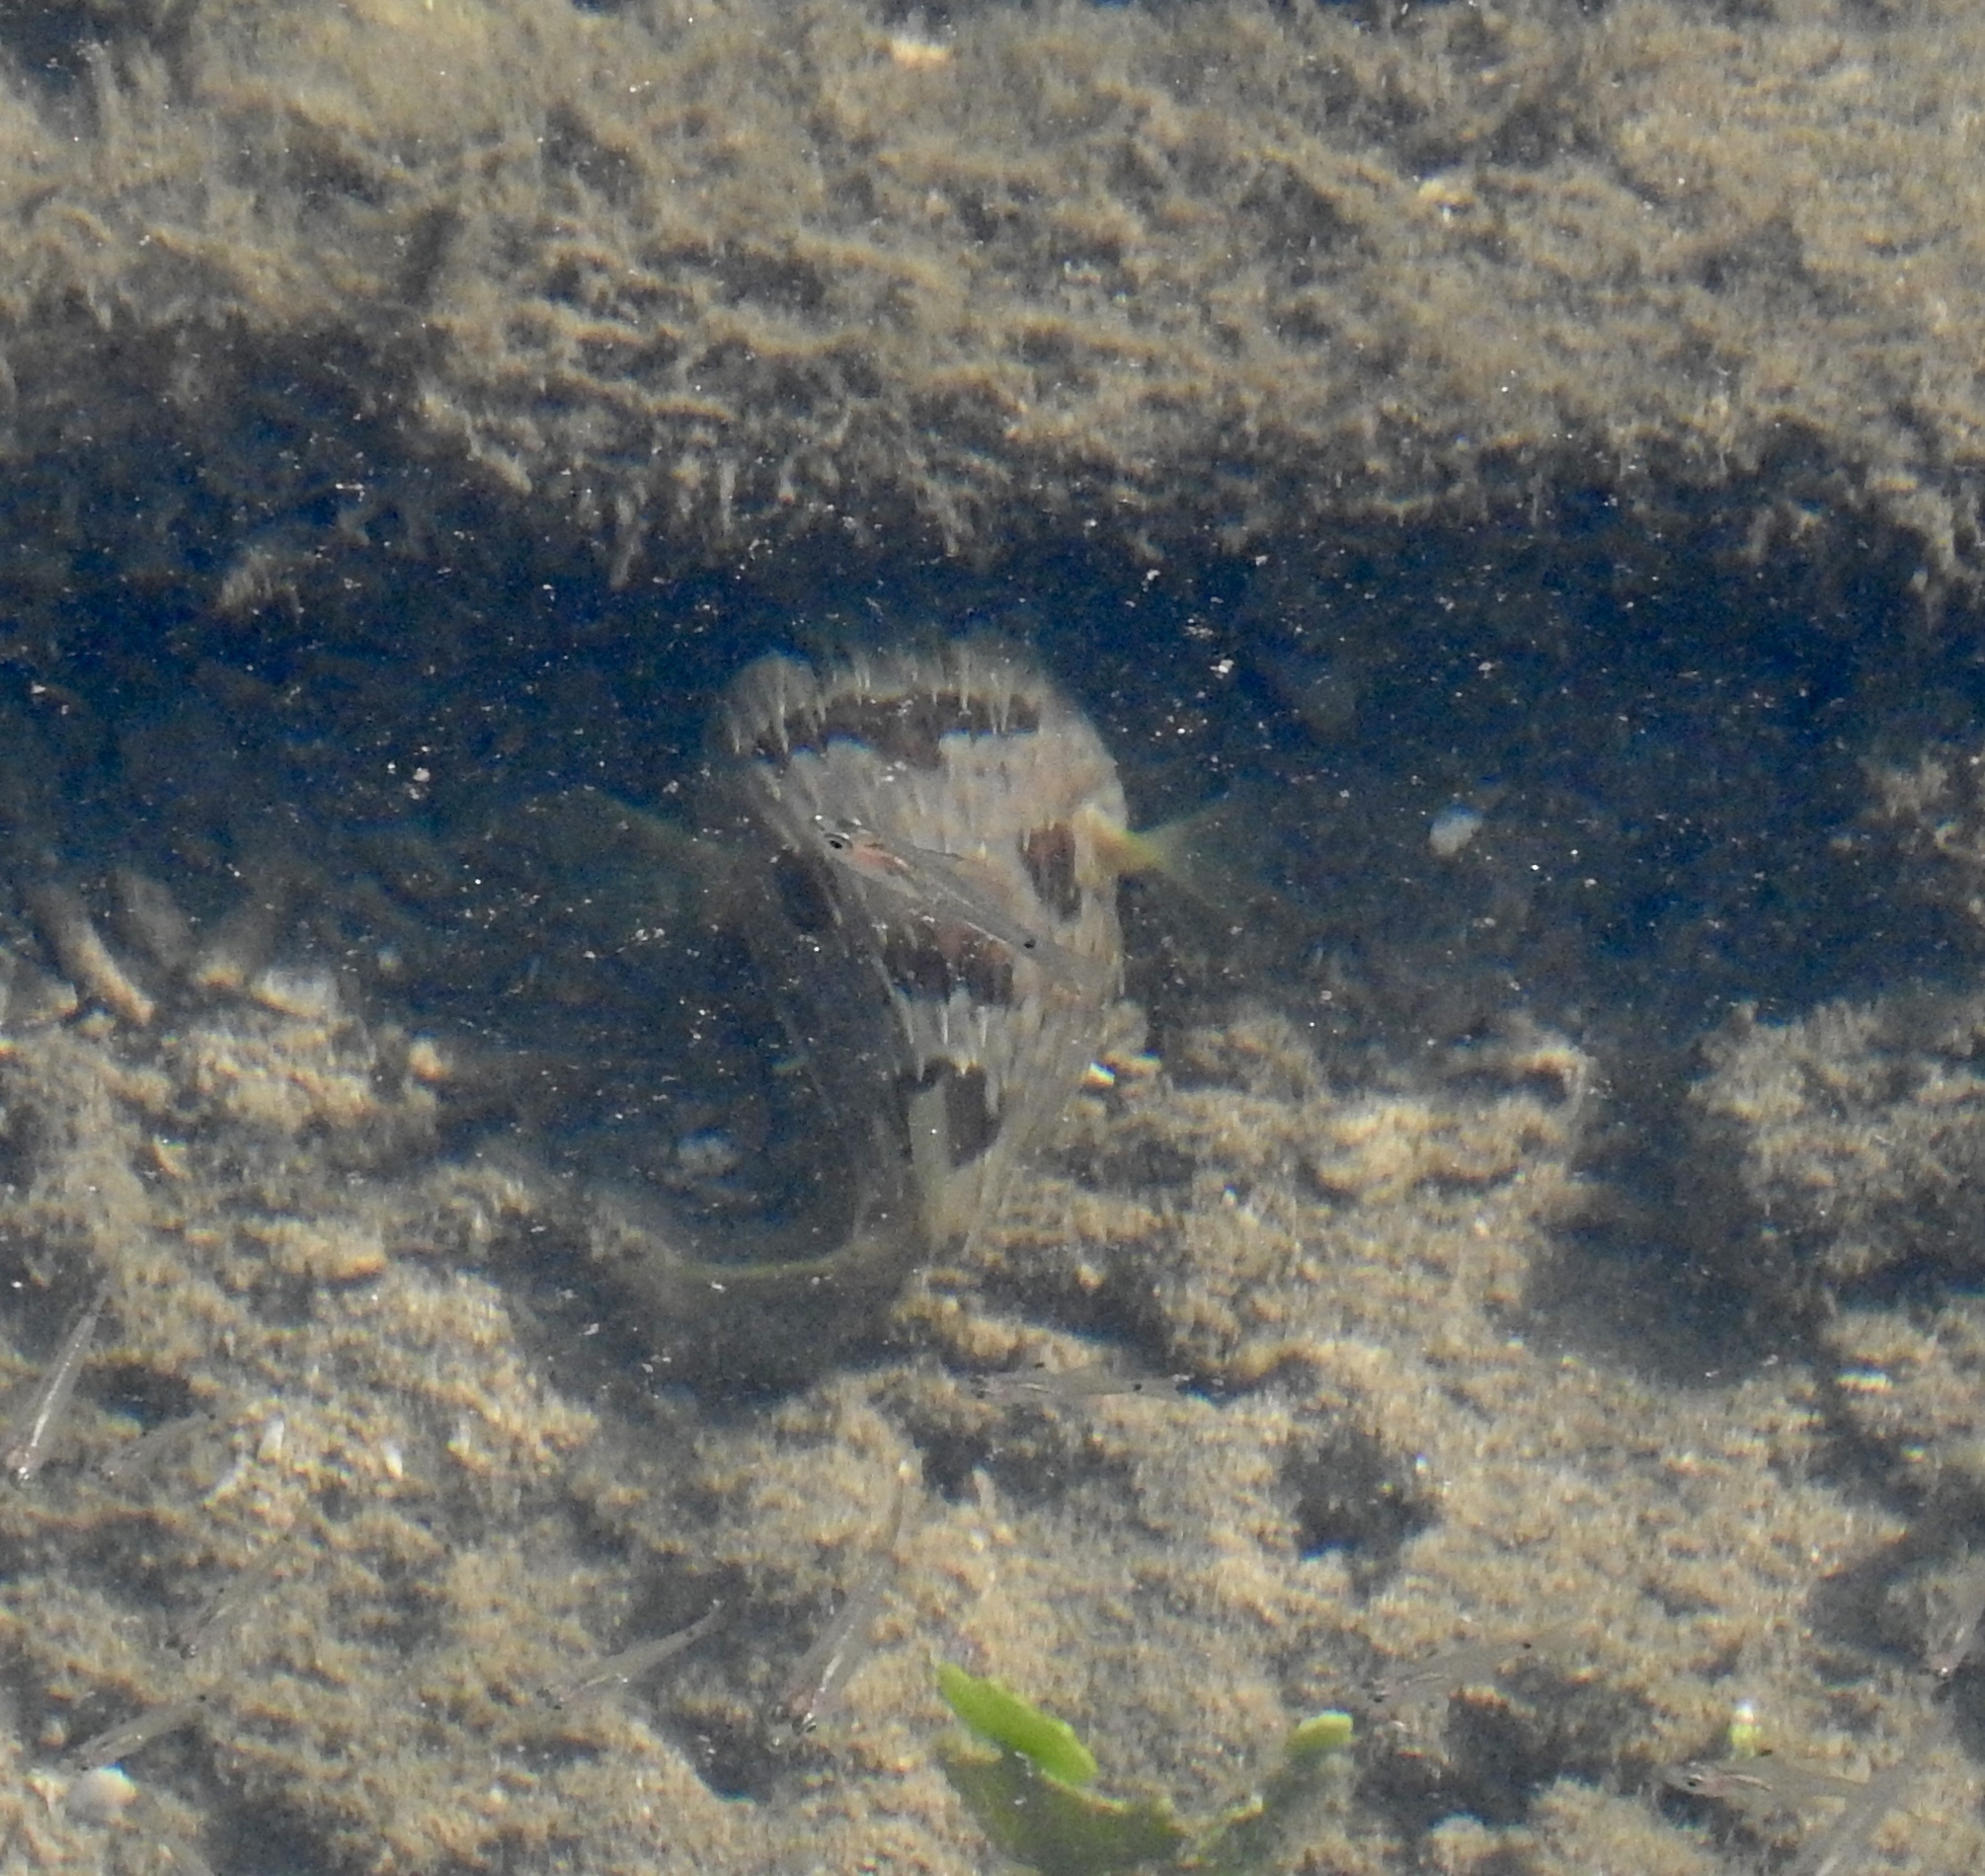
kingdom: Animalia
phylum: Chordata
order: Tetraodontiformes
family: Diodontidae
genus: Diodon
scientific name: Diodon holocanthus
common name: Balloonfish
